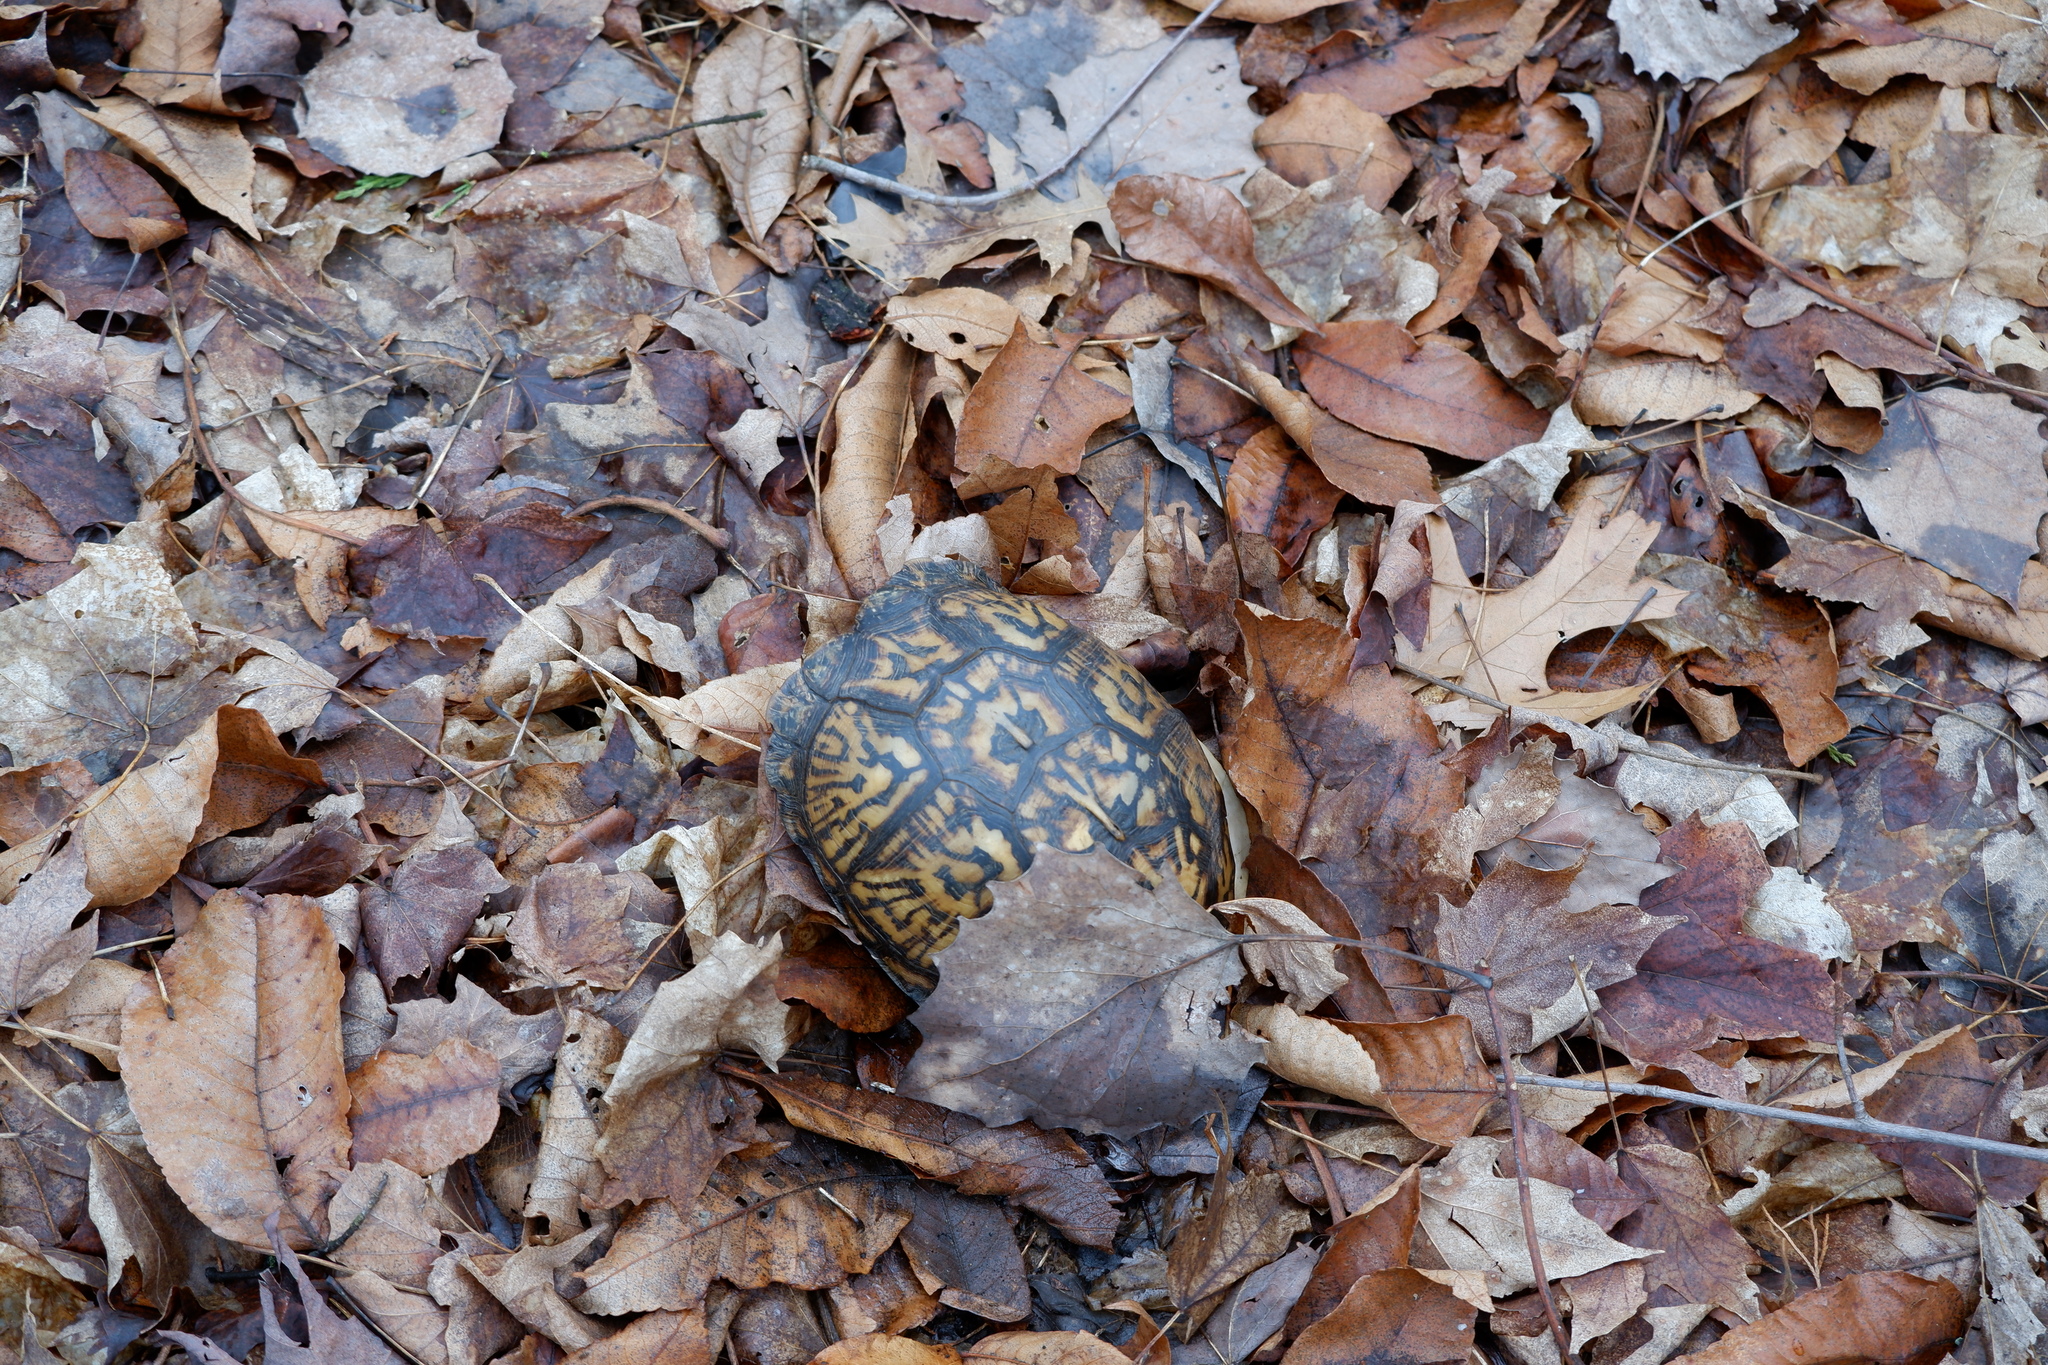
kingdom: Animalia
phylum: Chordata
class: Testudines
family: Emydidae
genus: Terrapene
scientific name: Terrapene carolina
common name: Common box turtle
